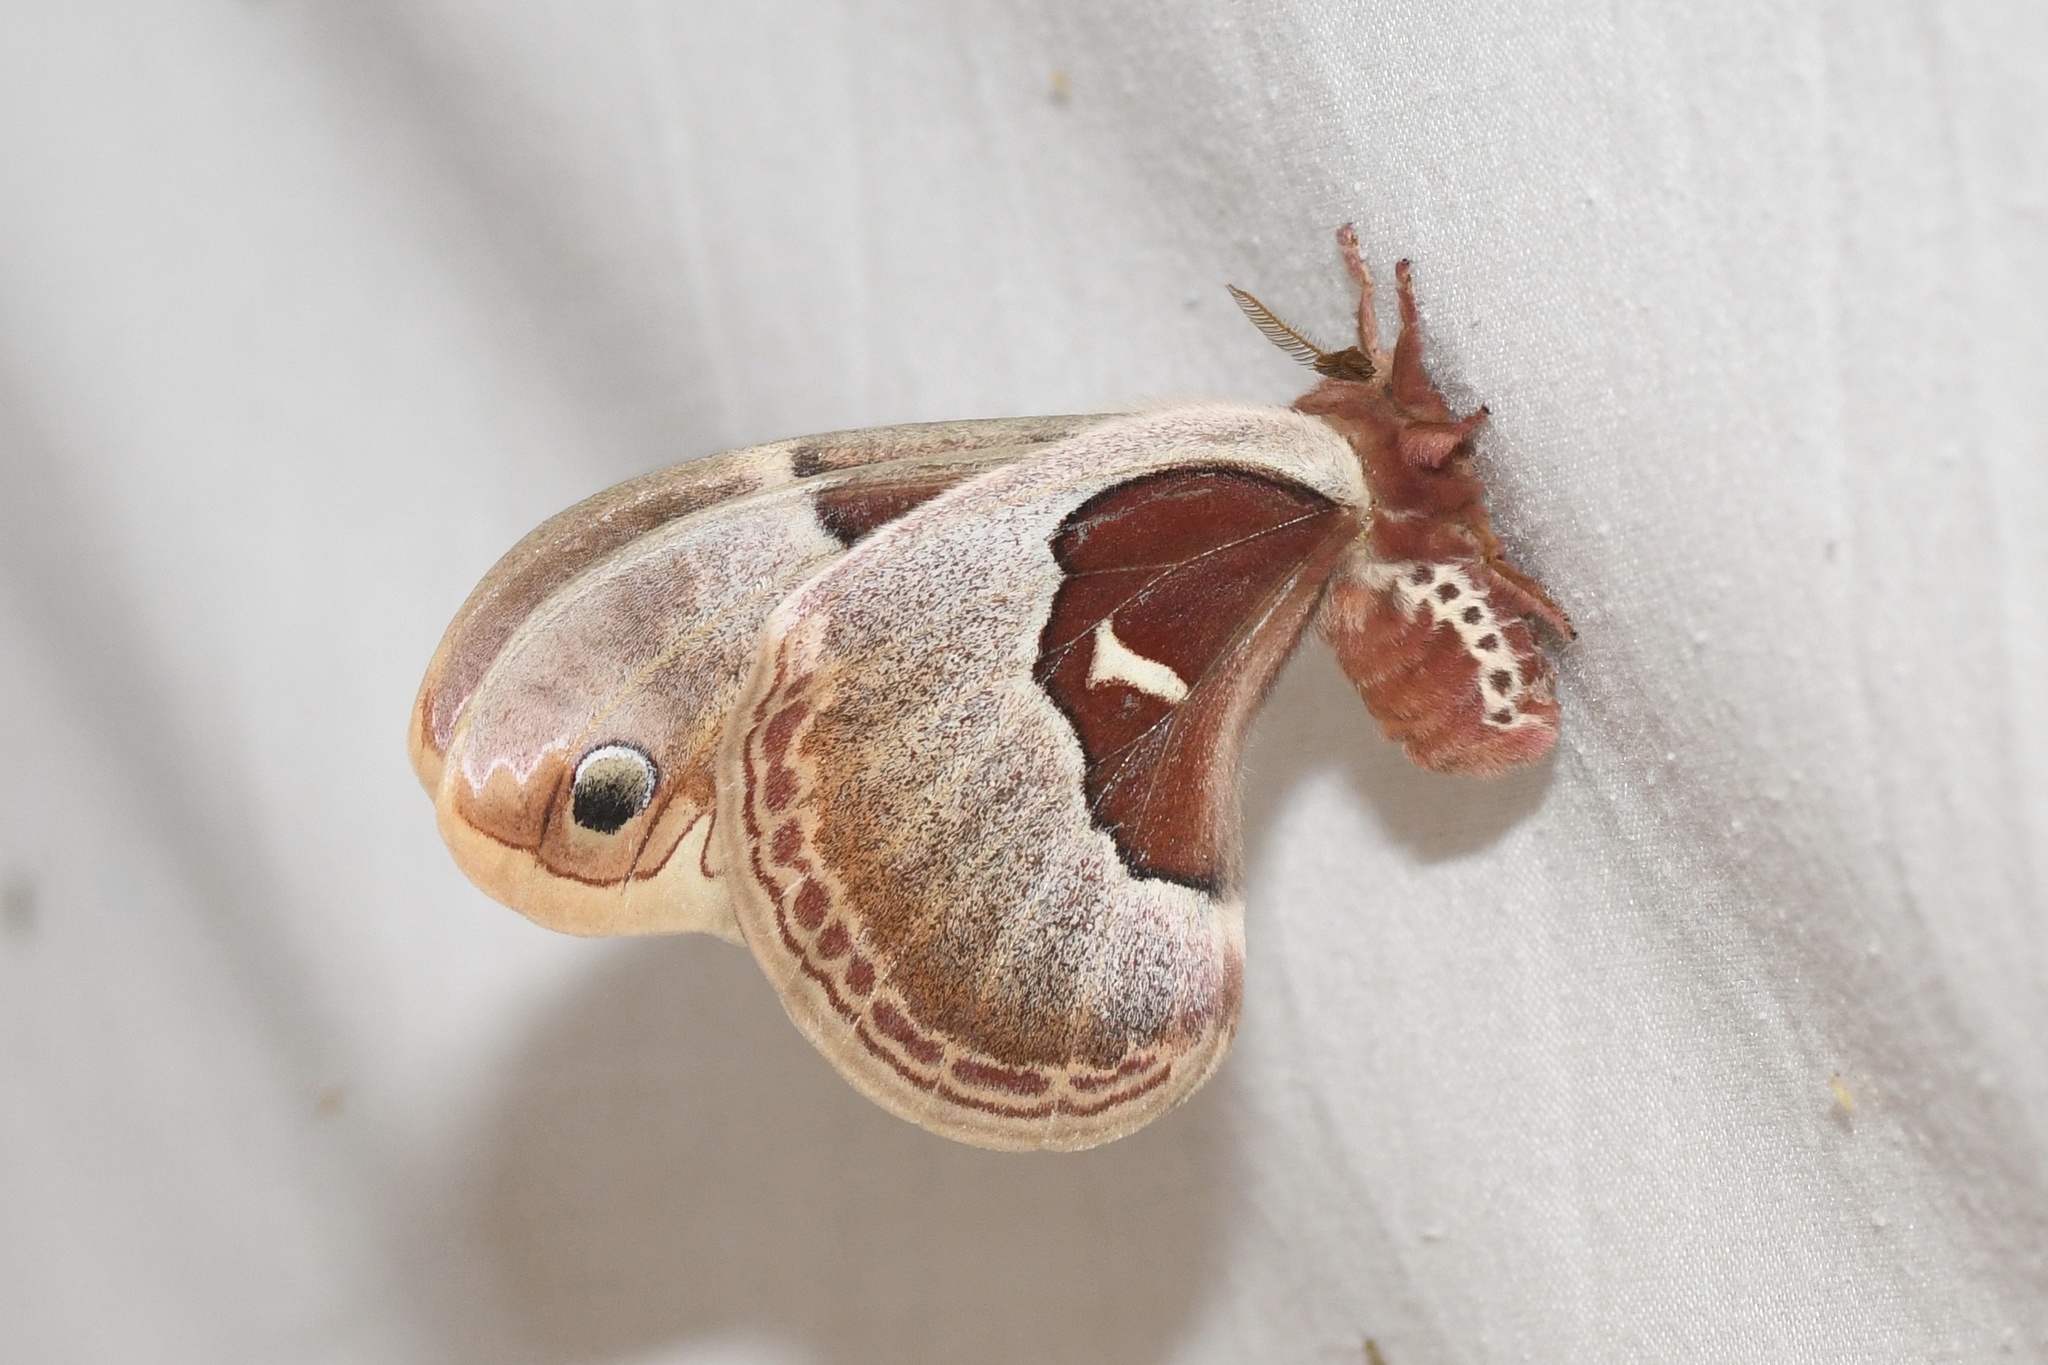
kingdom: Animalia
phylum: Arthropoda
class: Insecta
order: Lepidoptera
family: Saturniidae
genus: Callosamia
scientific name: Callosamia promethea
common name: Promethea silkmoth
